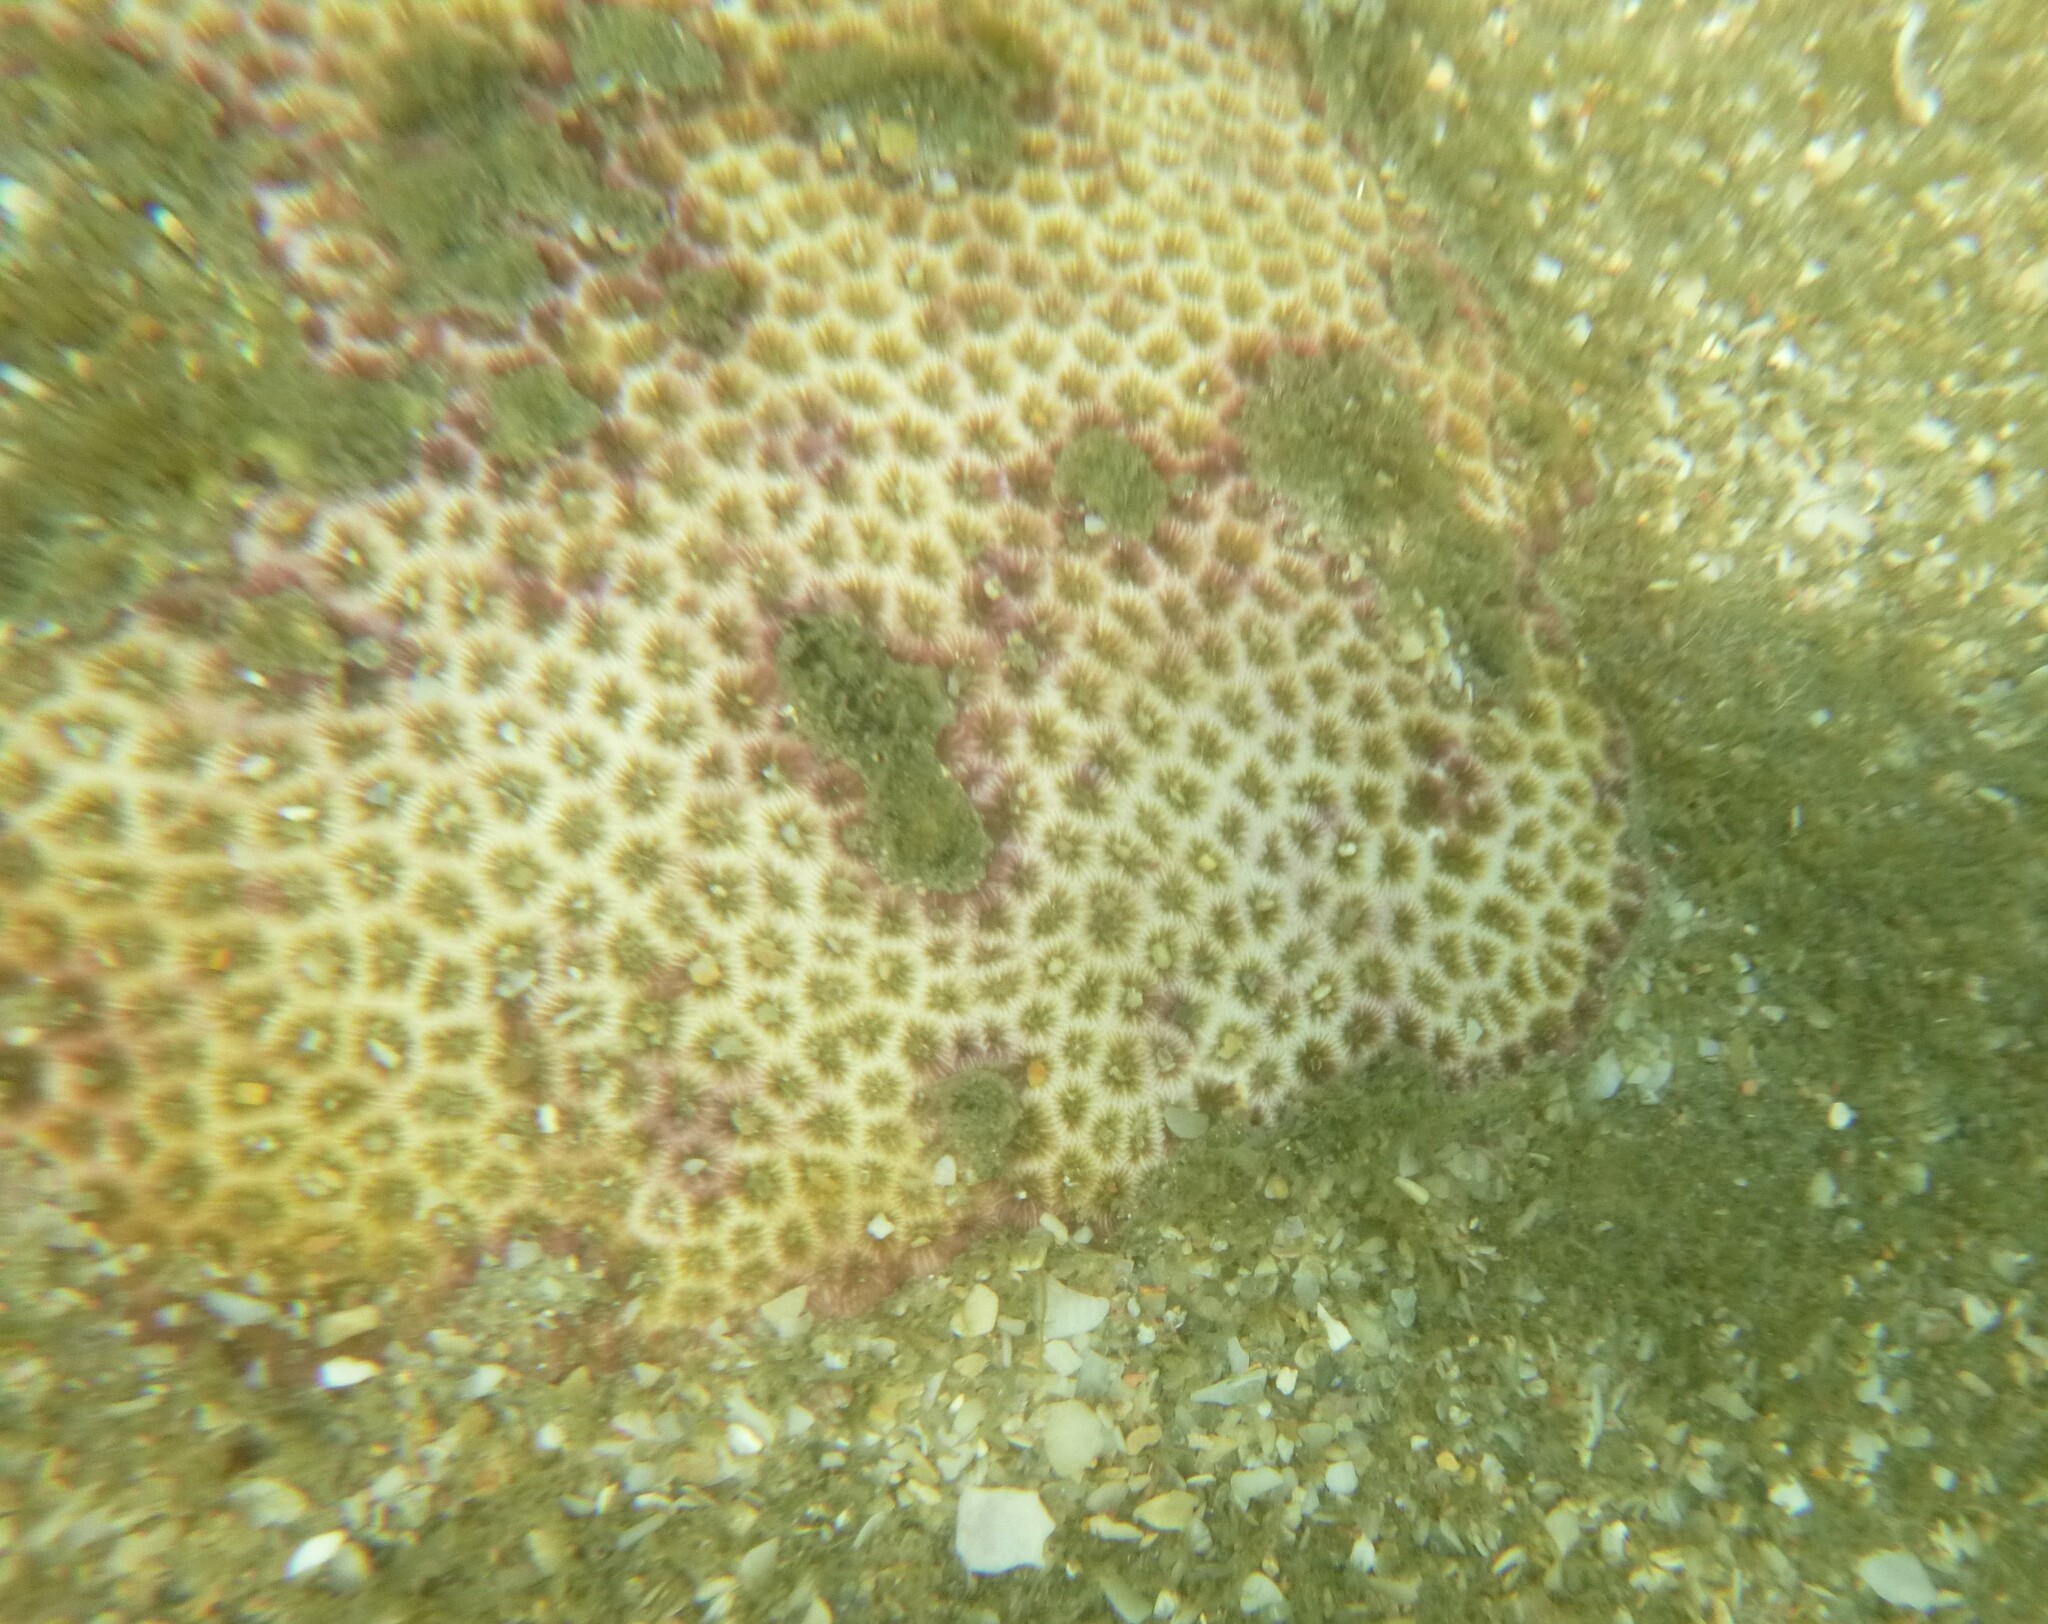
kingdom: Animalia
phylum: Cnidaria
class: Anthozoa
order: Scleractinia
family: Rhizangiidae
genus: Siderastrea
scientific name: Siderastrea radians
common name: Lesser starlet coral
